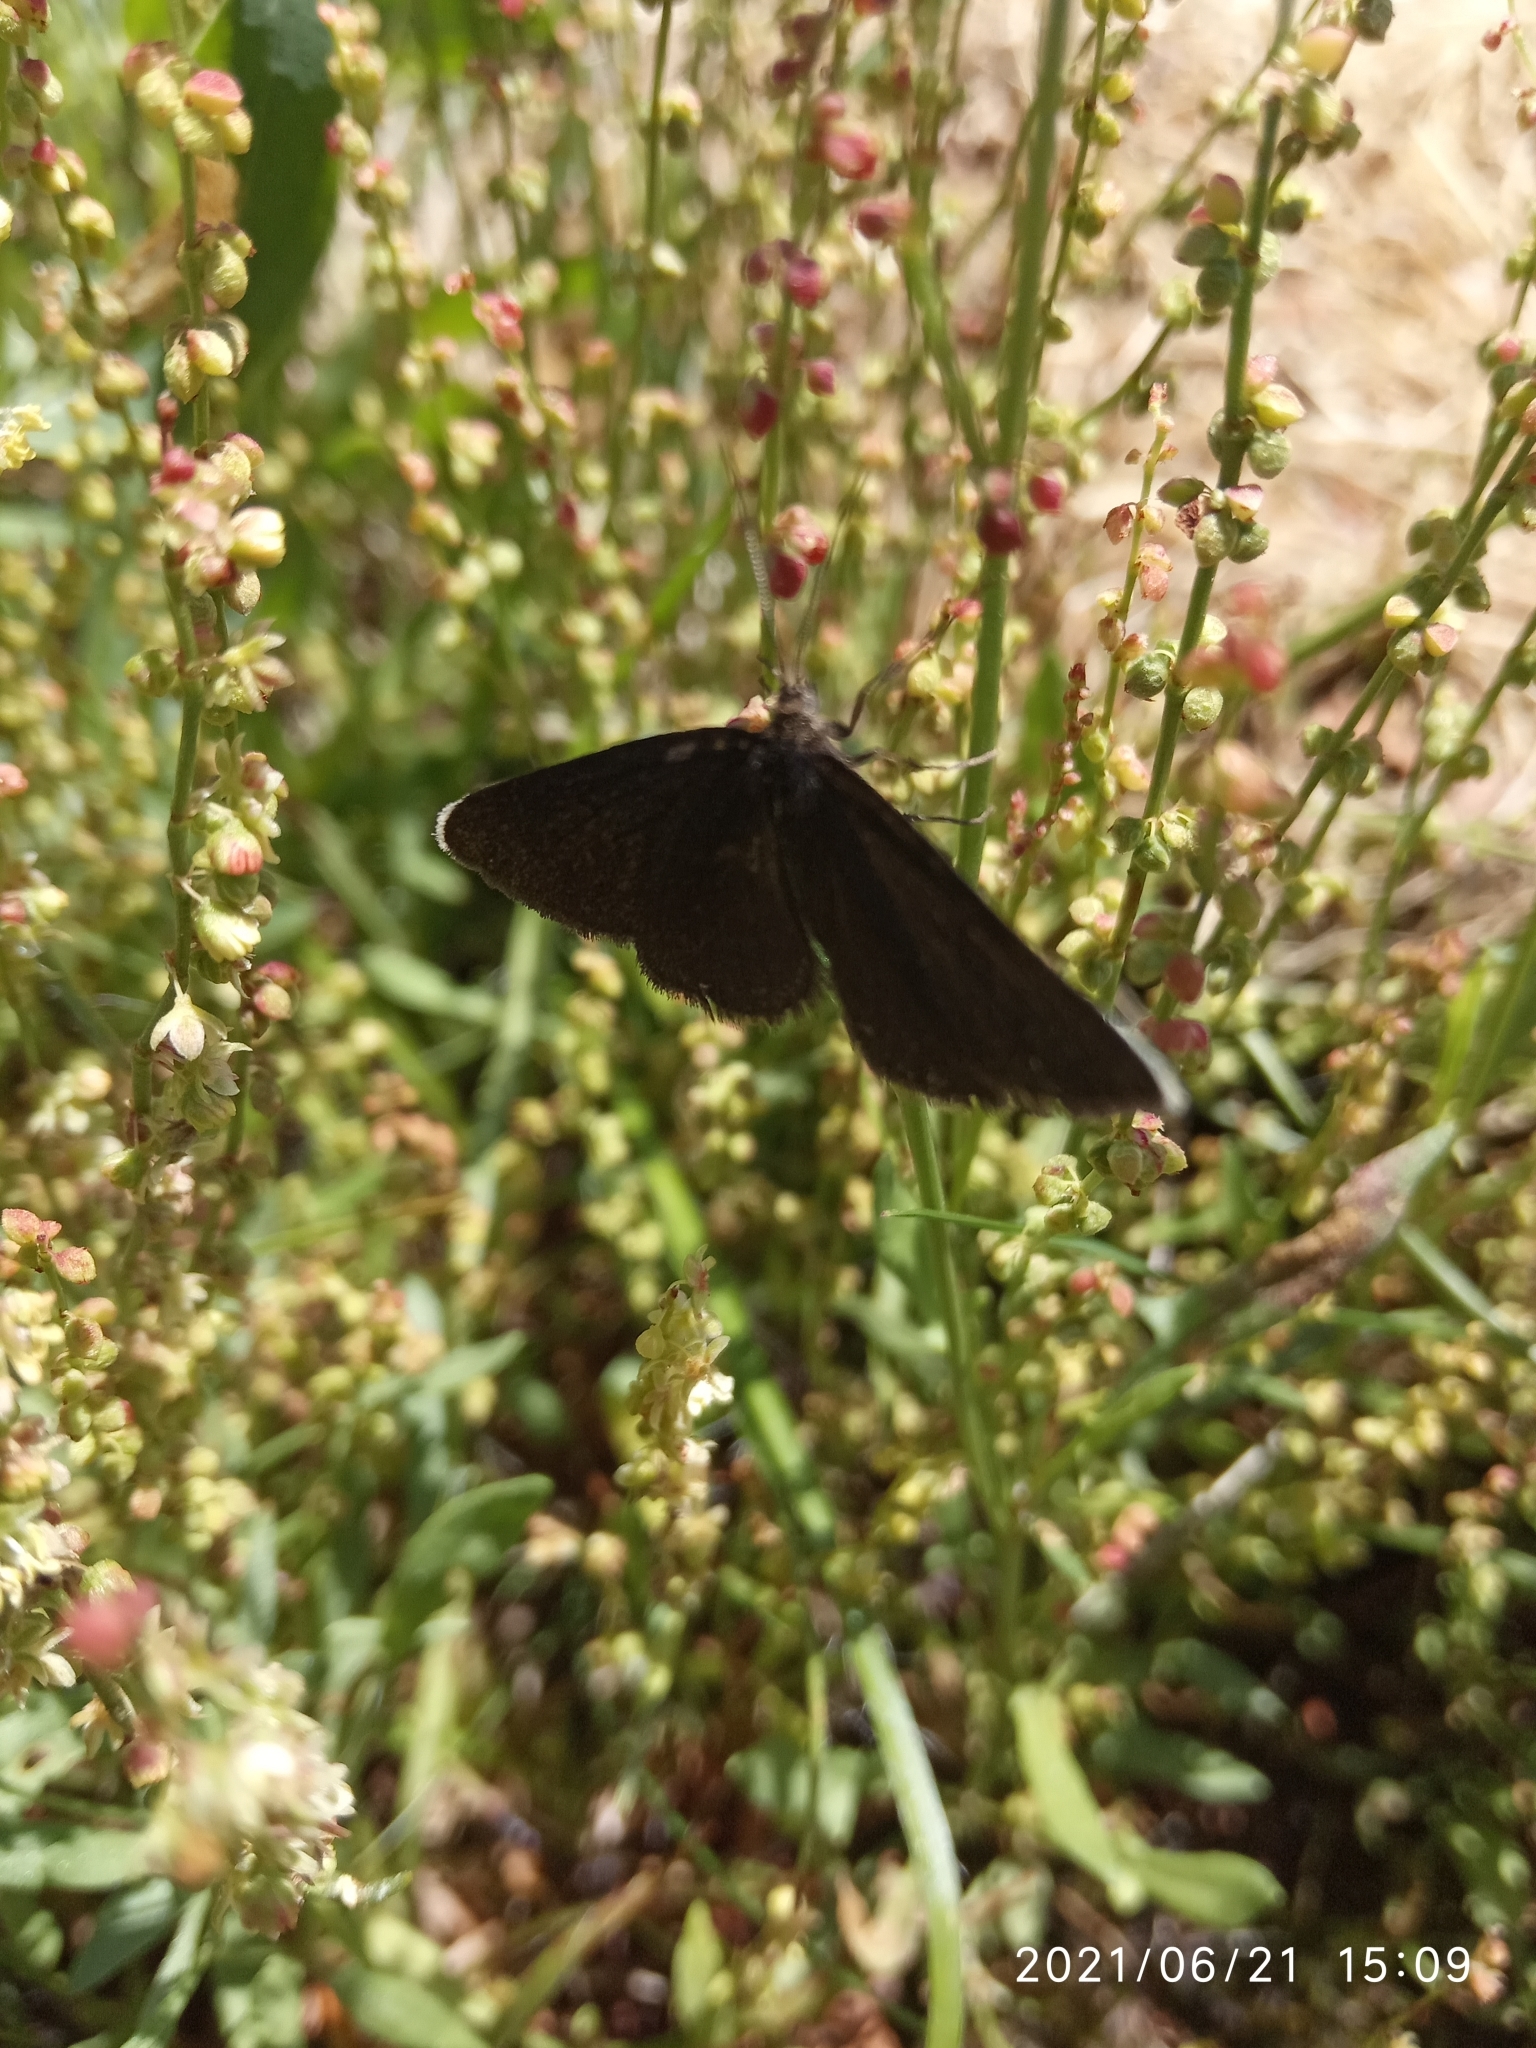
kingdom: Animalia
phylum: Arthropoda
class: Insecta
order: Lepidoptera
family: Geometridae
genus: Odezia
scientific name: Odezia atrata
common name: Chimney sweeper
